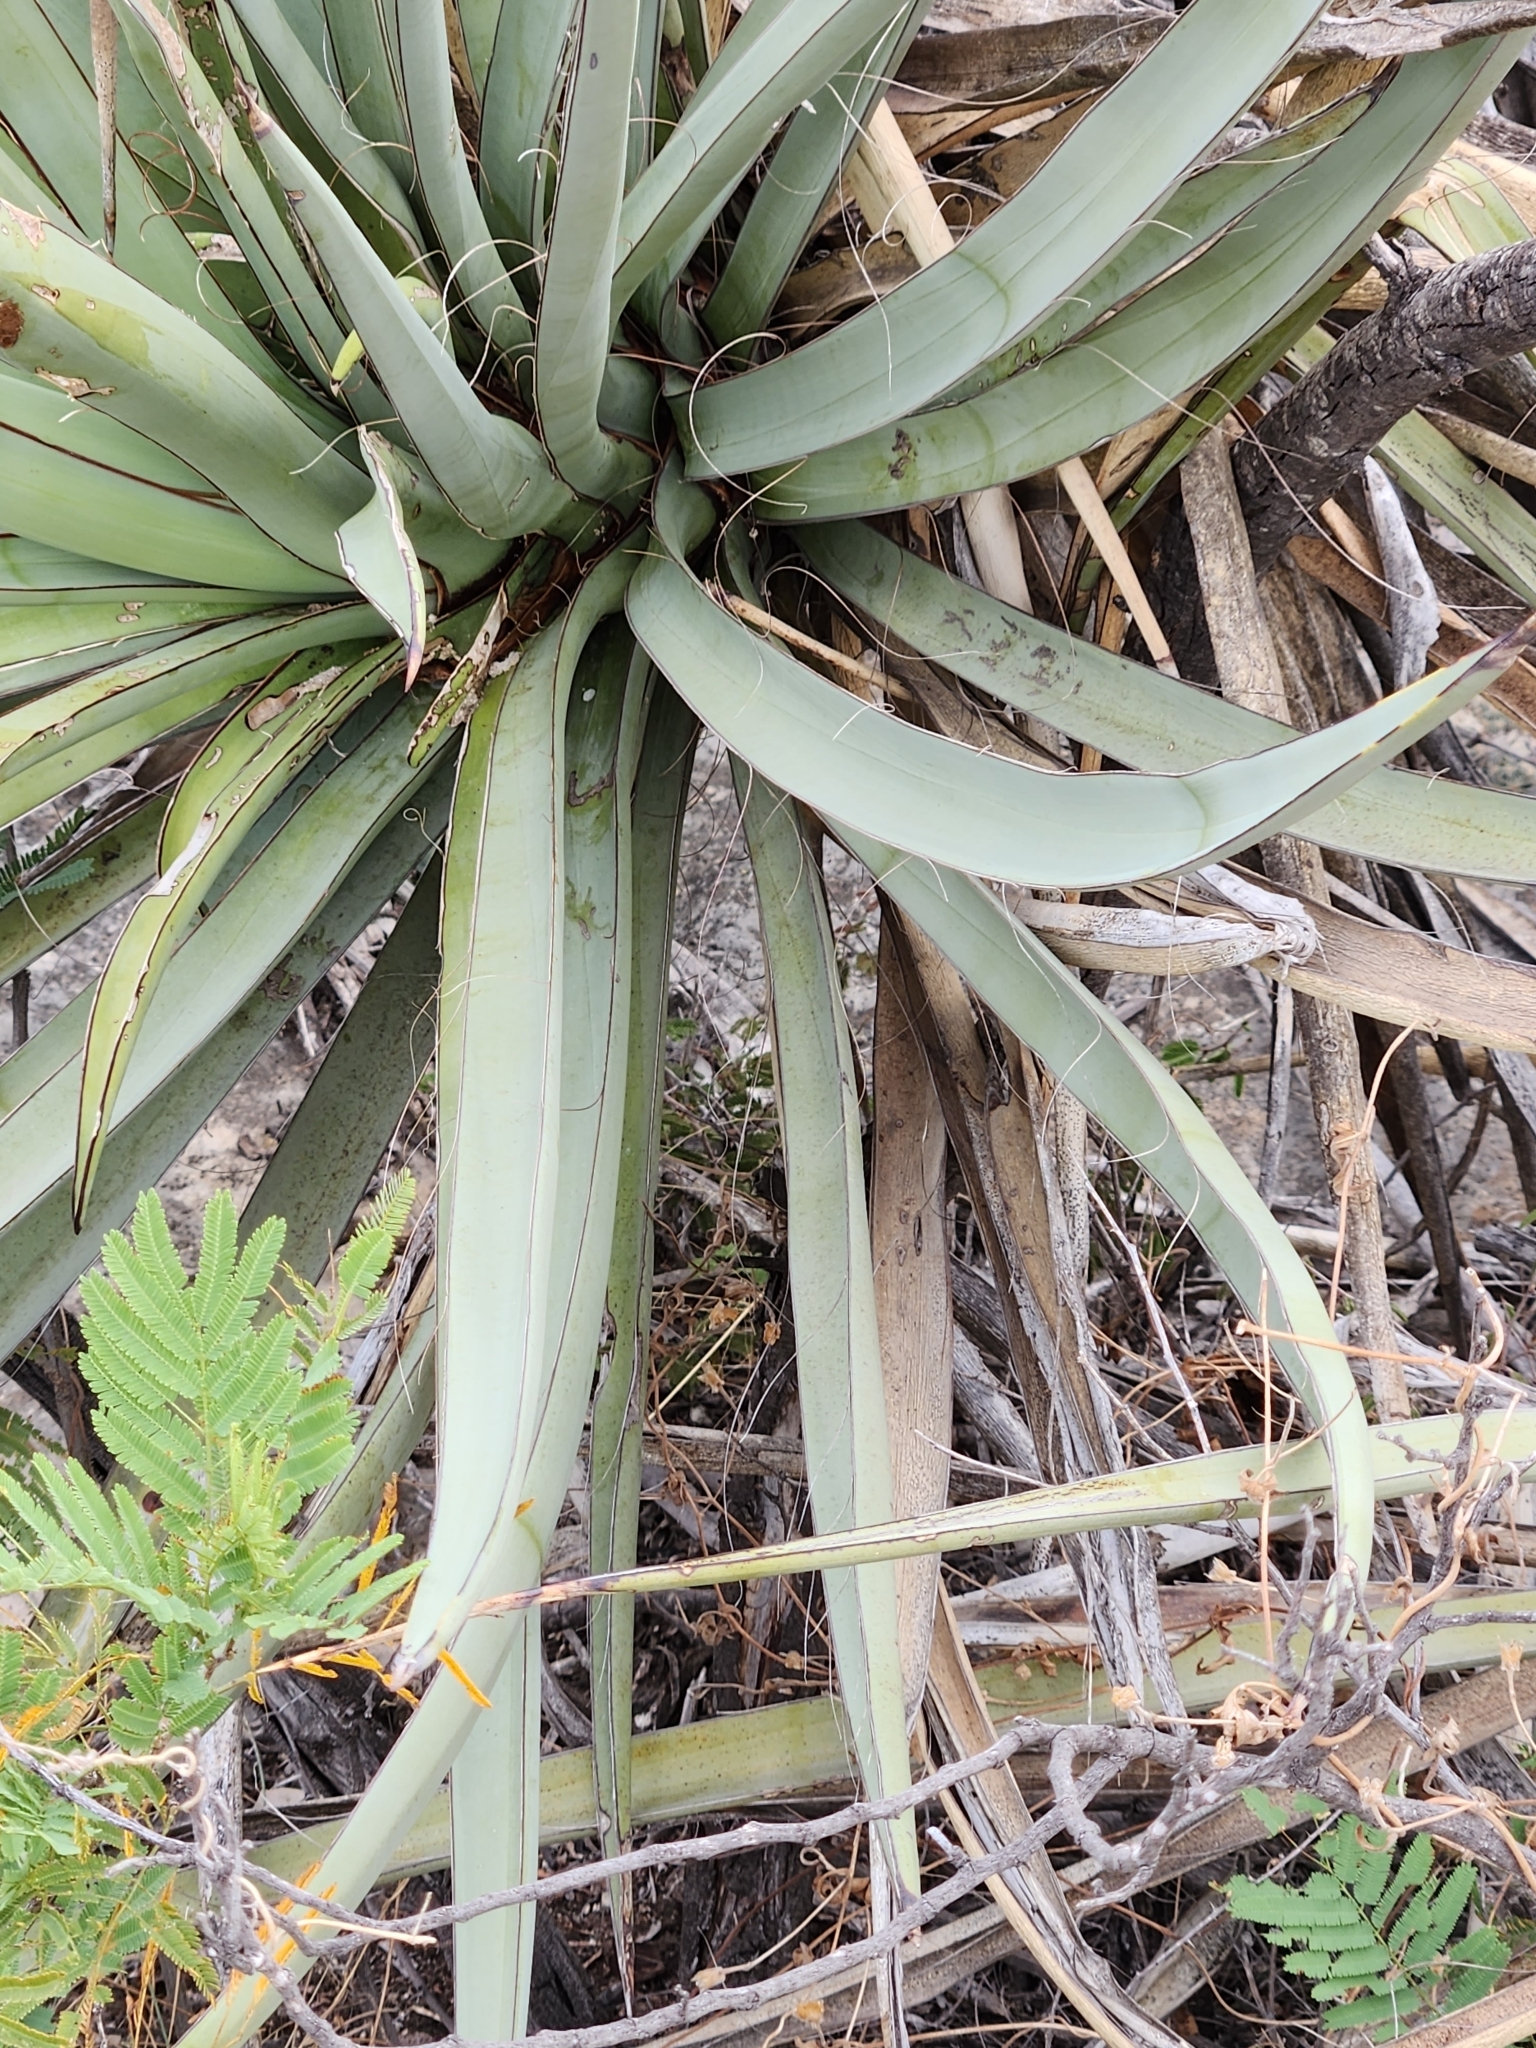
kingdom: Plantae
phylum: Tracheophyta
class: Liliopsida
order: Asparagales
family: Asparagaceae
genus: Yucca
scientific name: Yucca treculiana
